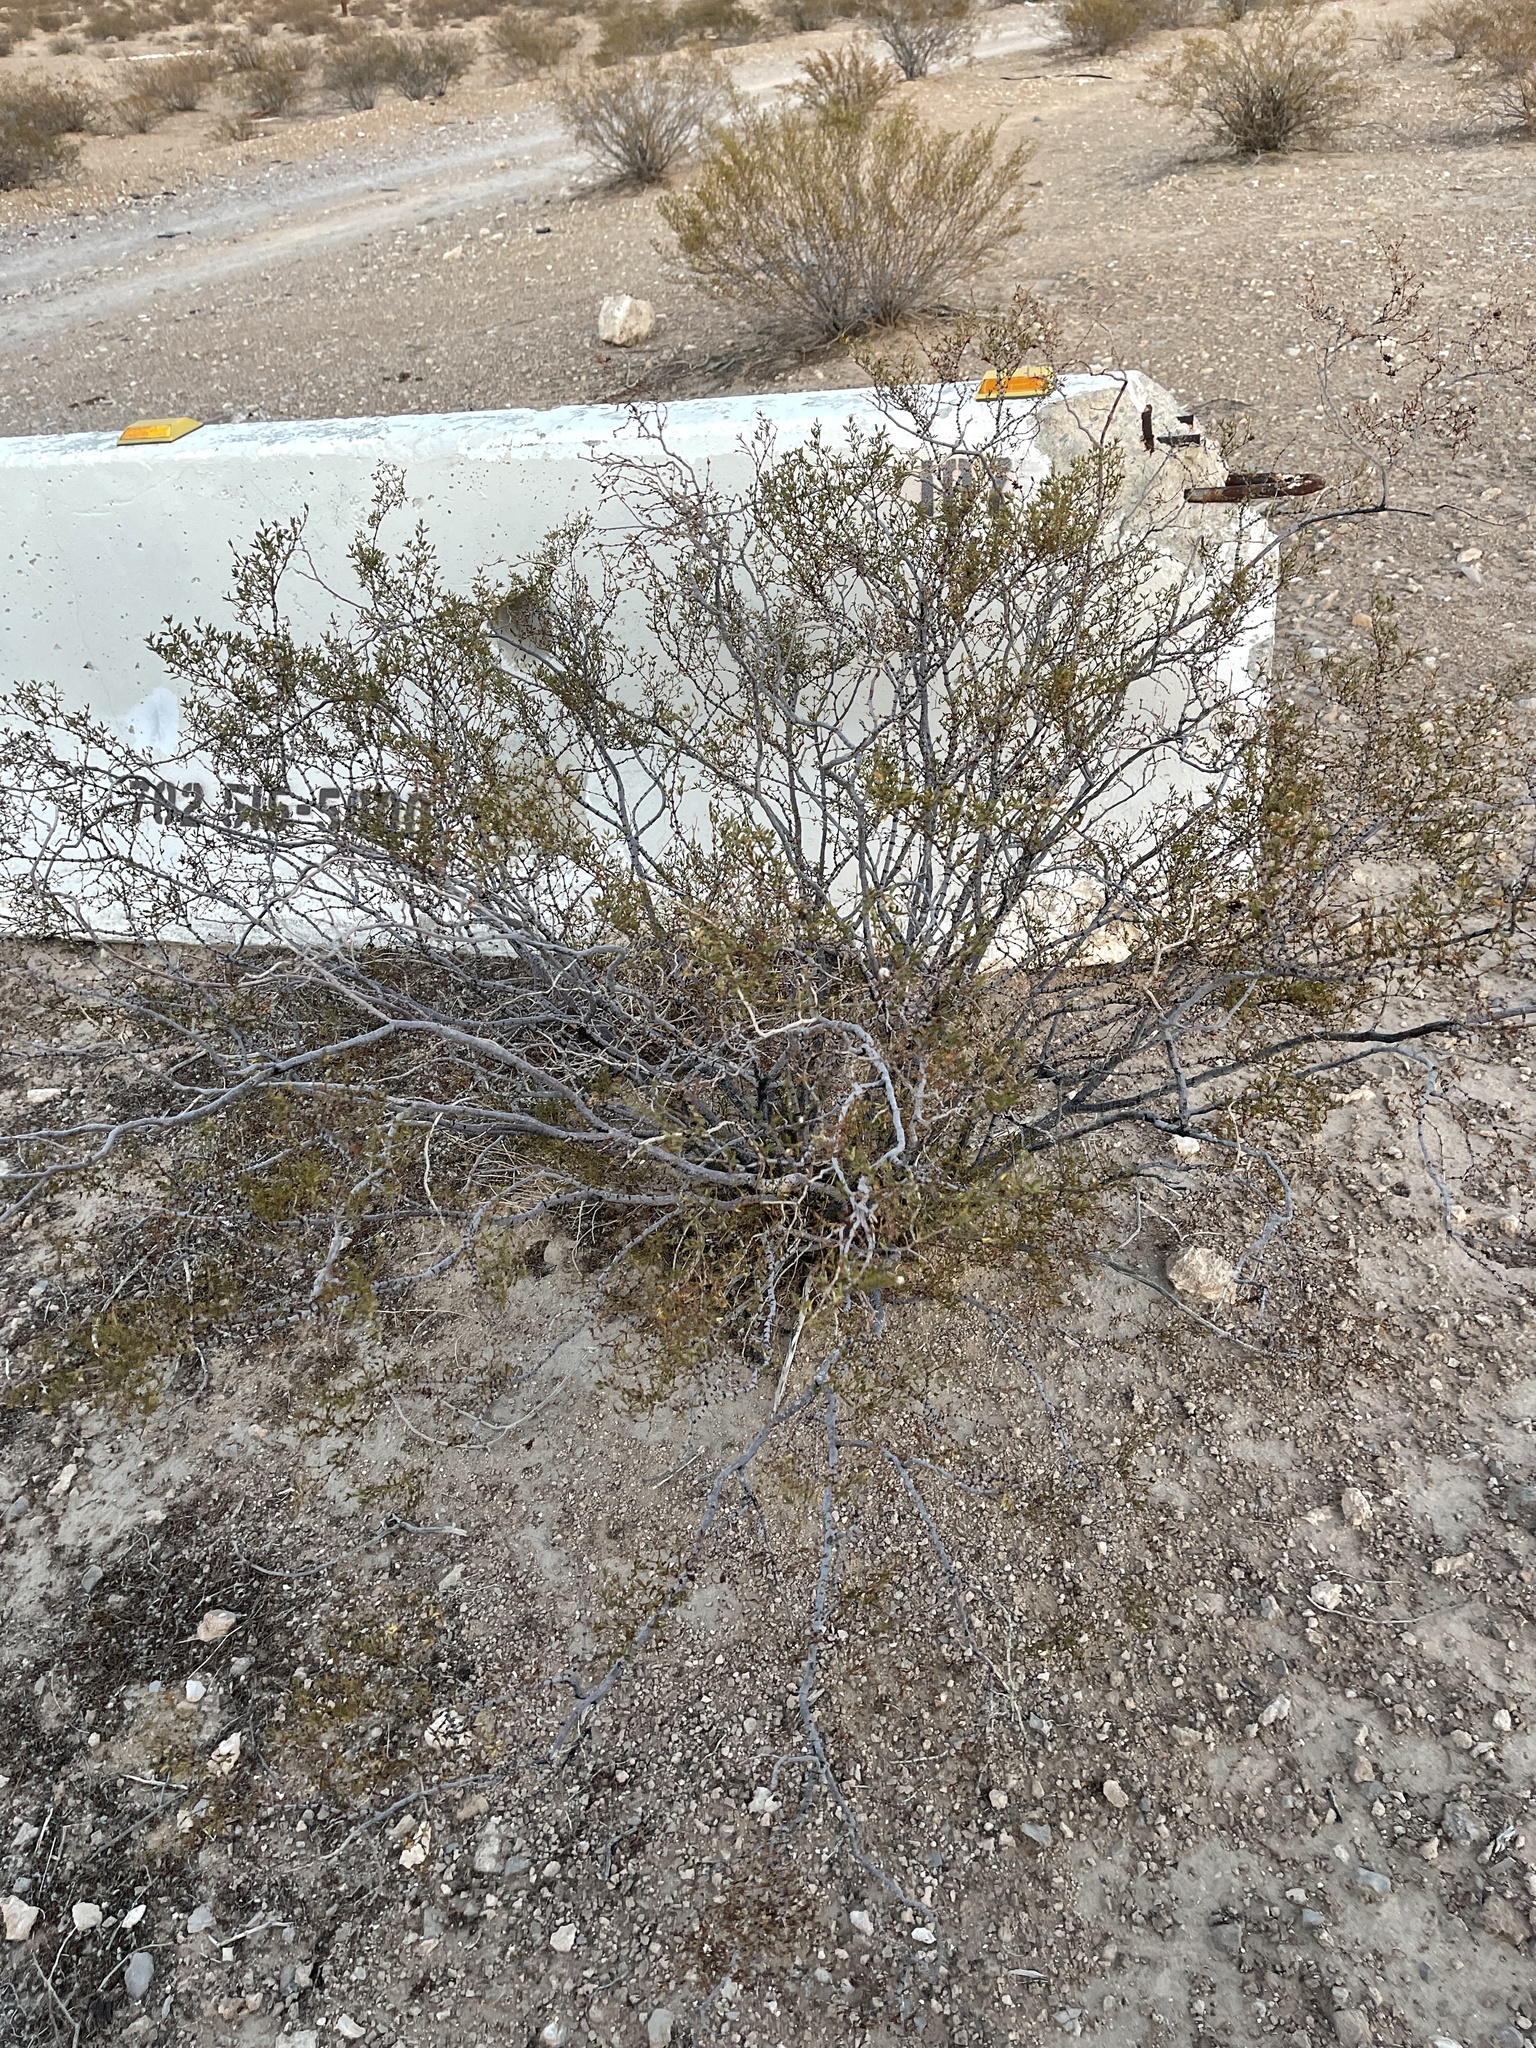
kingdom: Plantae
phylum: Tracheophyta
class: Magnoliopsida
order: Zygophyllales
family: Zygophyllaceae
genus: Larrea
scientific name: Larrea tridentata
